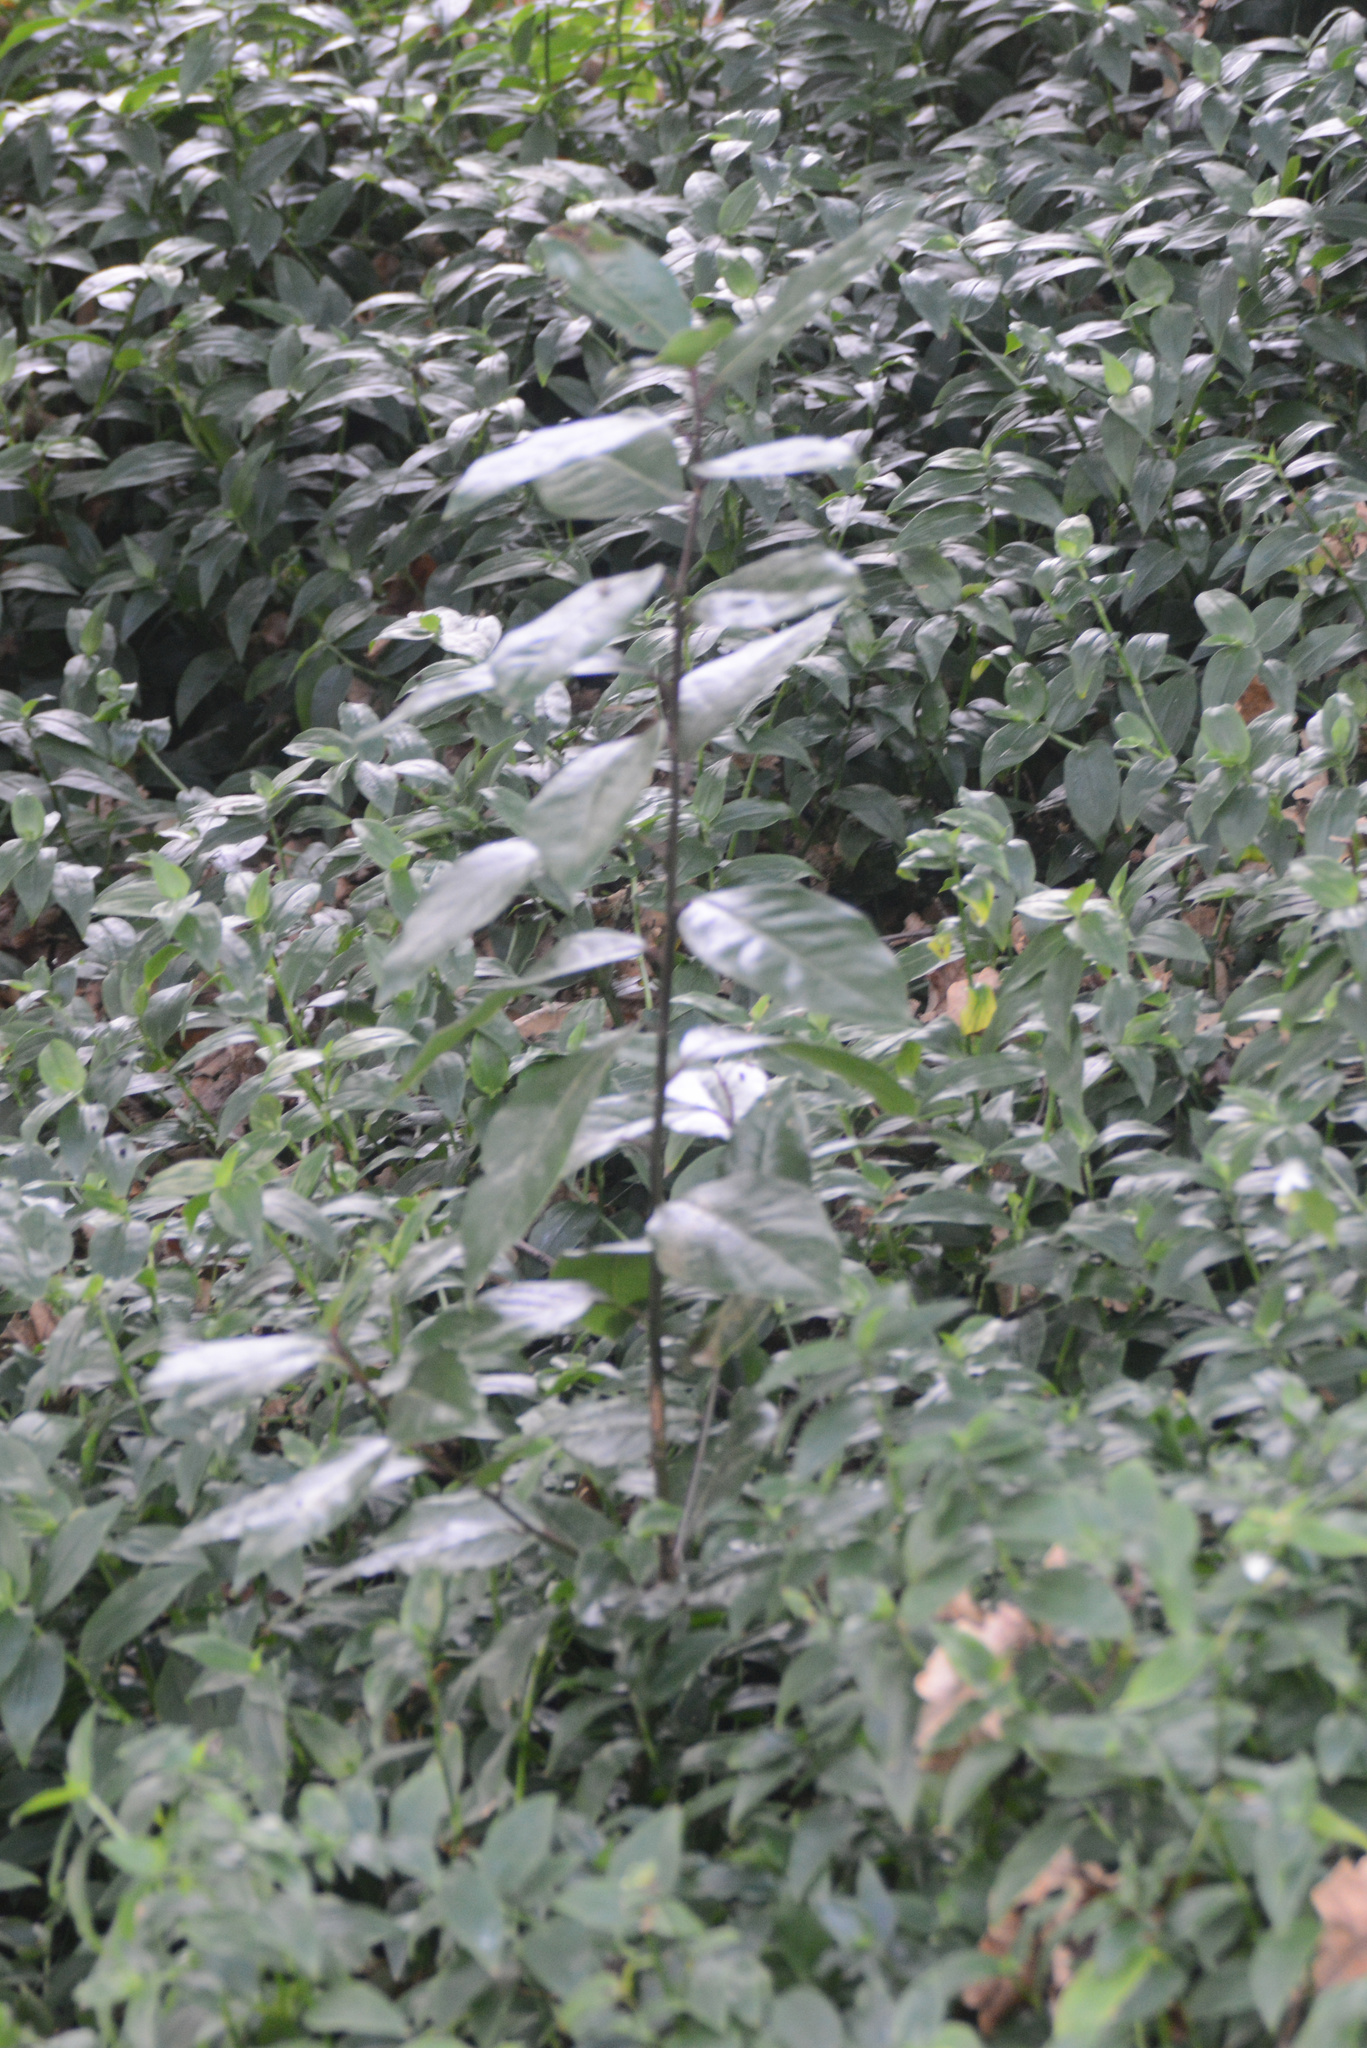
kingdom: Plantae
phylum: Tracheophyta
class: Magnoliopsida
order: Laurales
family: Lauraceae
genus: Laurus
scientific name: Laurus nobilis
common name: Bay
